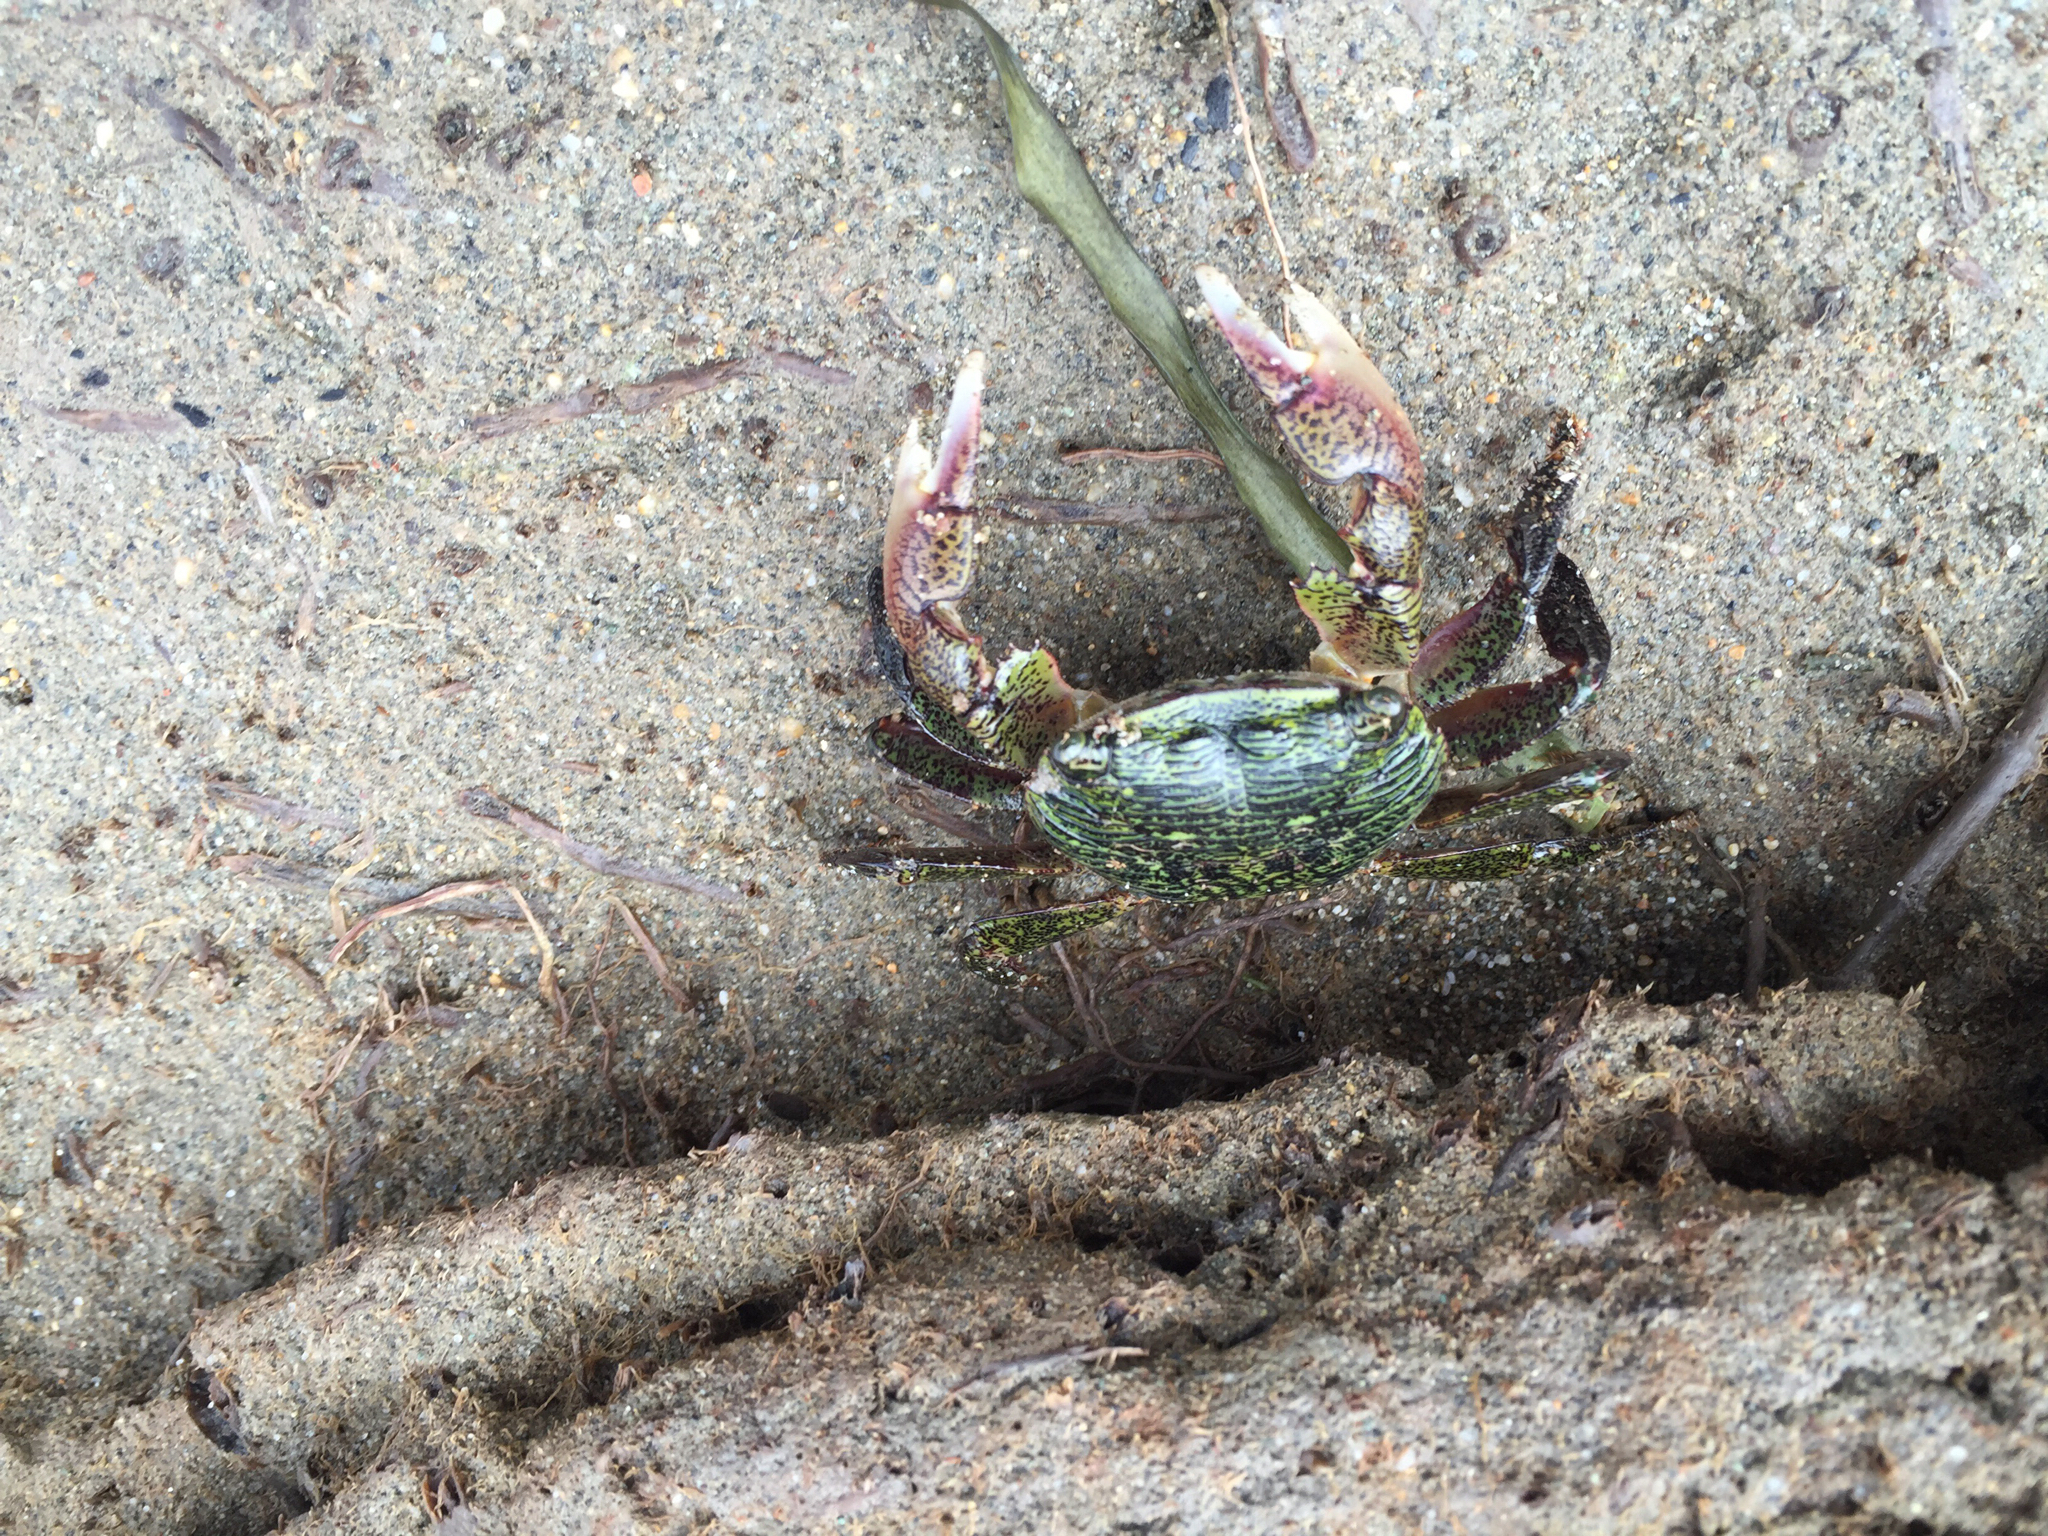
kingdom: Animalia
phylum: Arthropoda
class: Malacostraca
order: Decapoda
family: Grapsidae
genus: Pachygrapsus
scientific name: Pachygrapsus crassipes
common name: Striped shore crab
